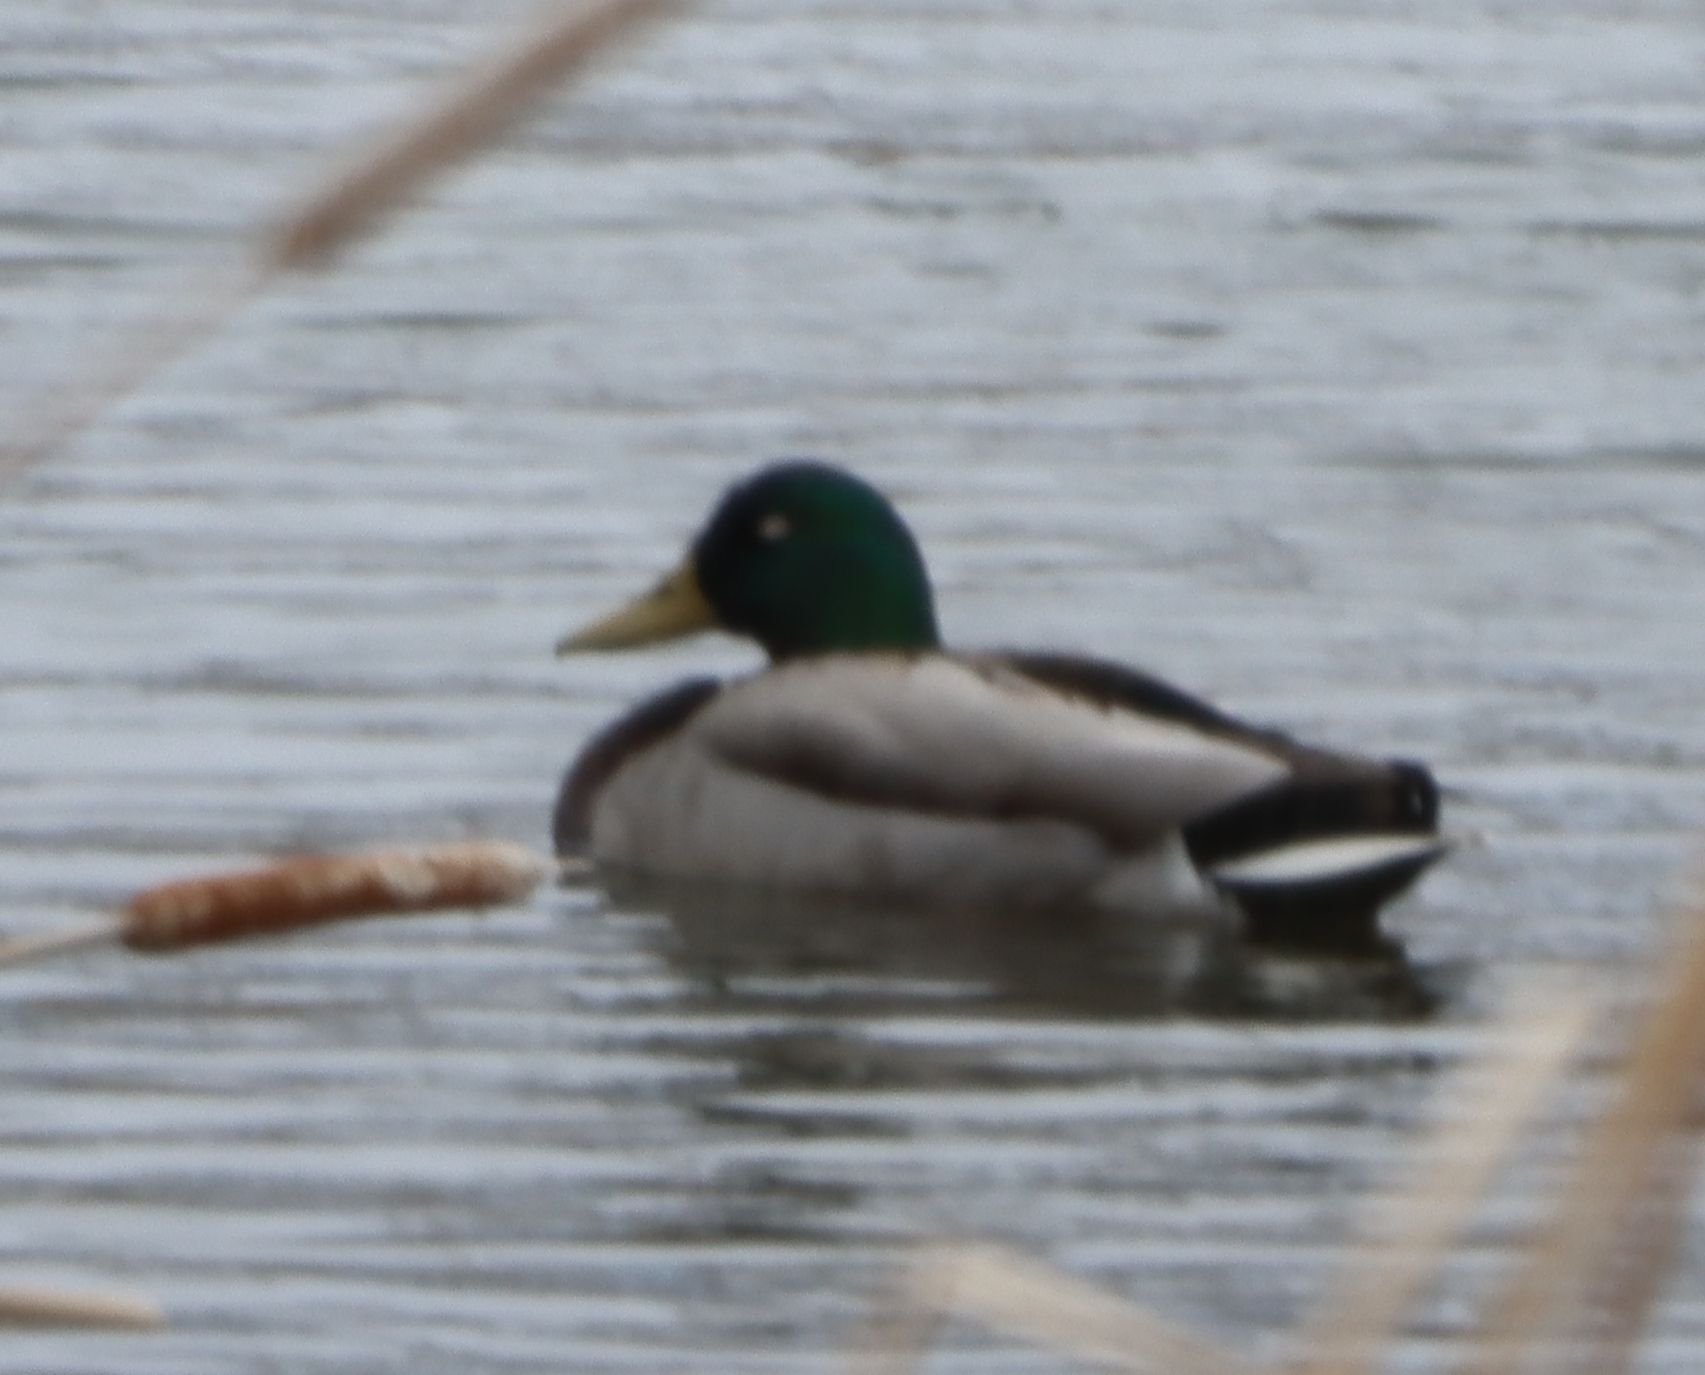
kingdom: Animalia
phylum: Chordata
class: Aves
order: Anseriformes
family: Anatidae
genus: Anas
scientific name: Anas platyrhynchos
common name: Mallard
